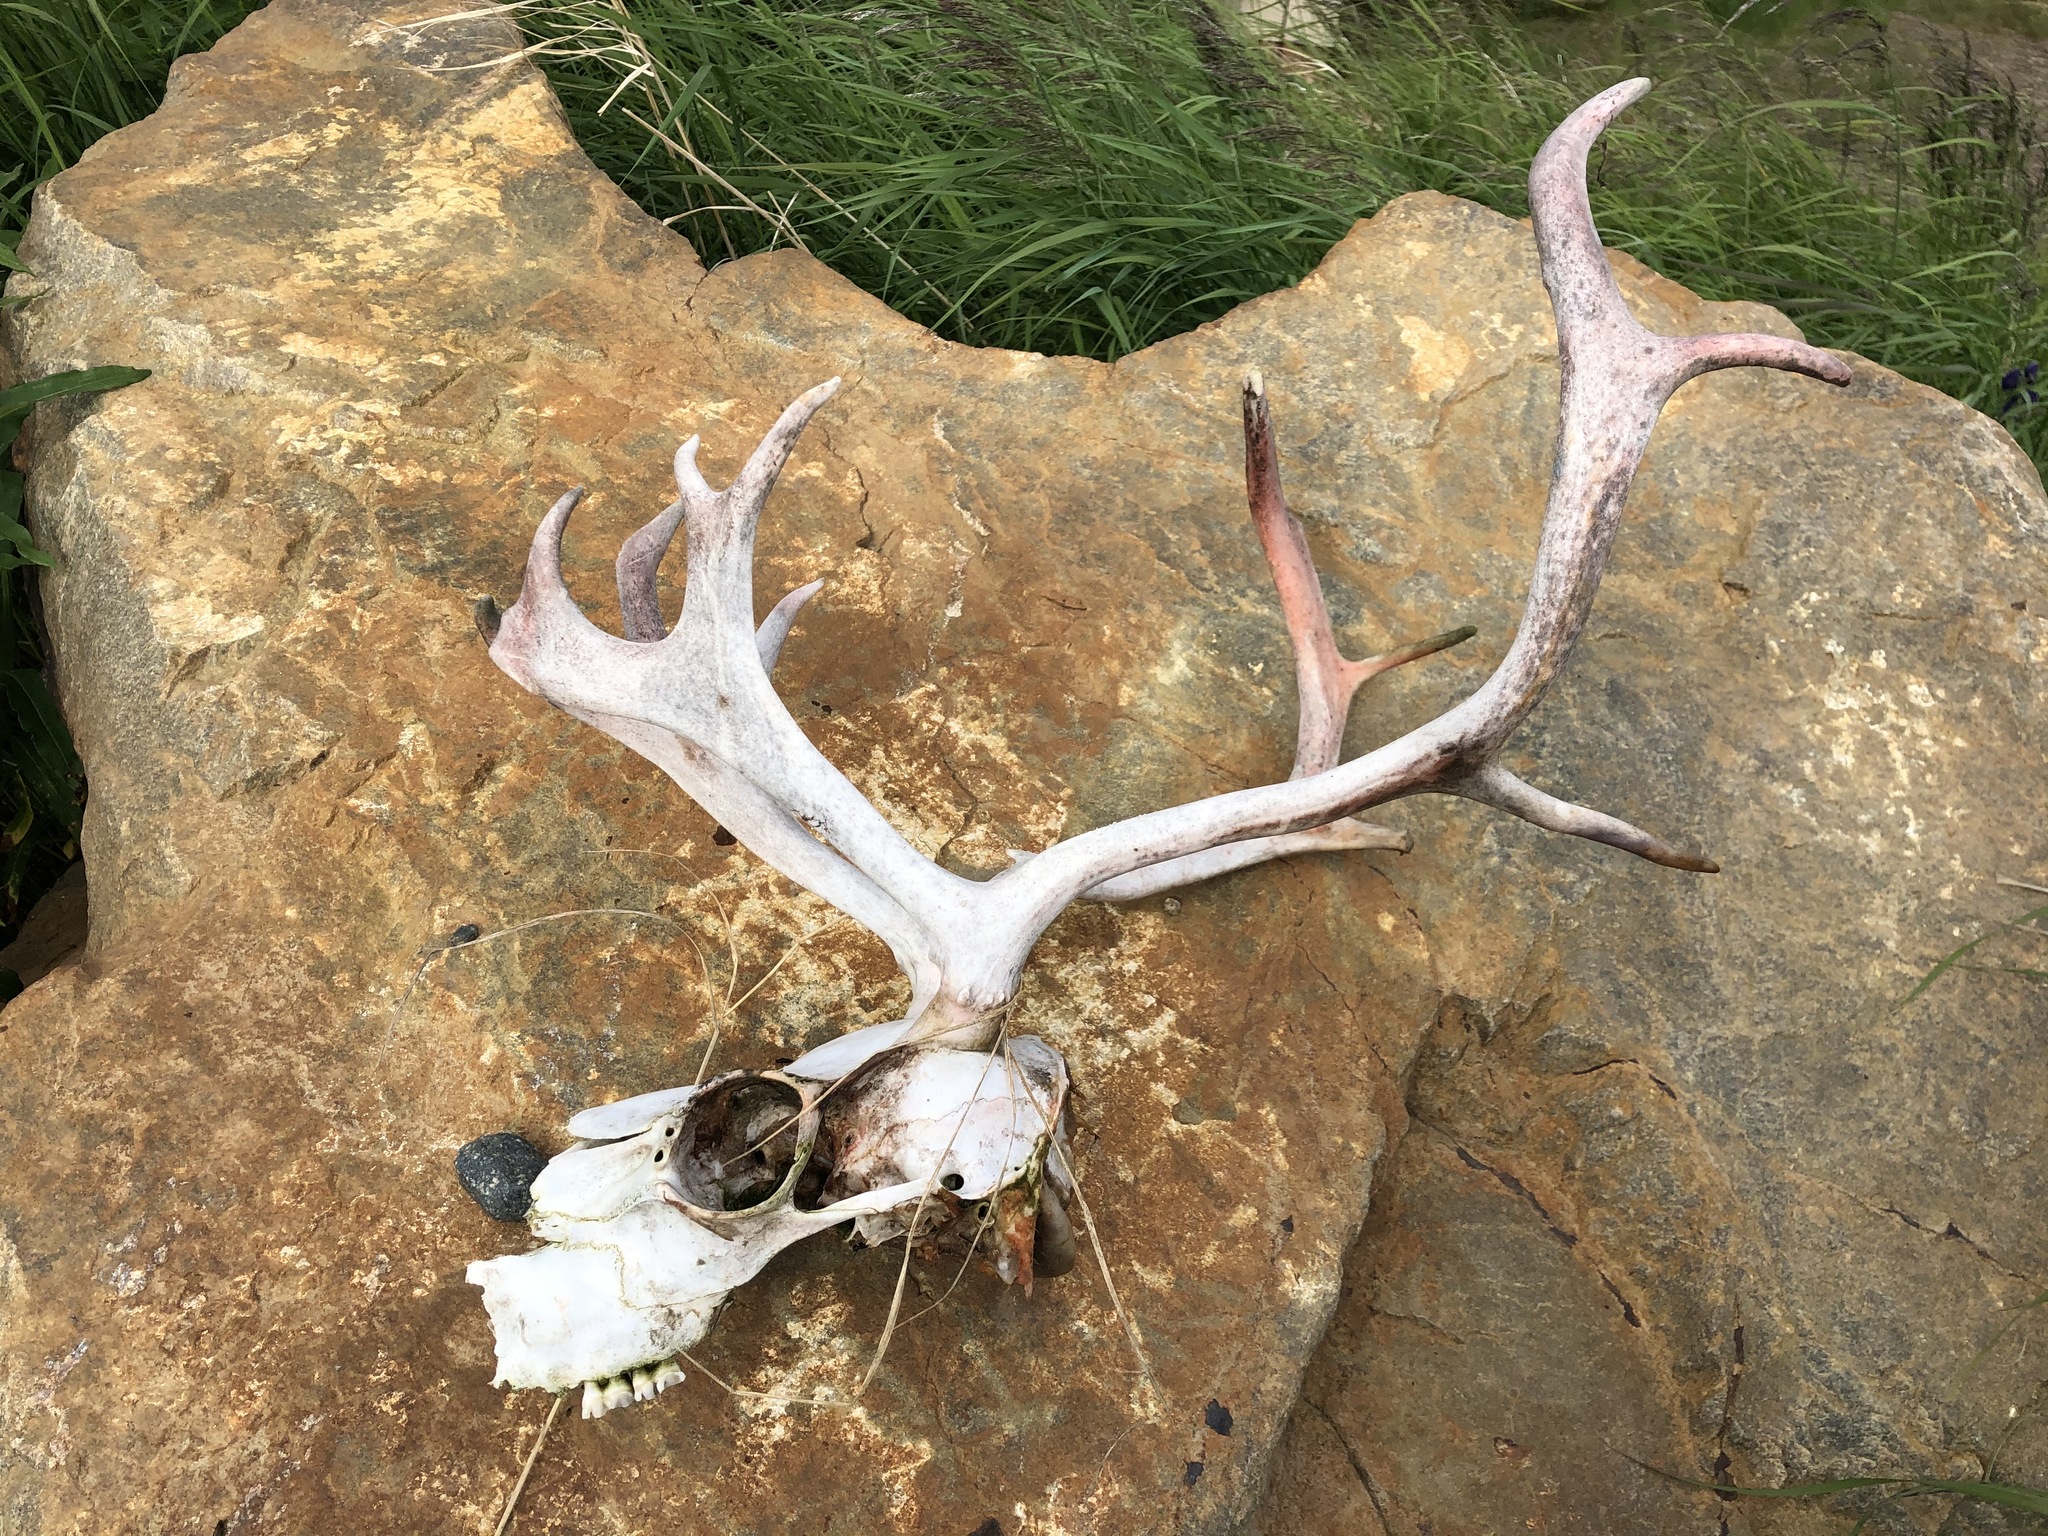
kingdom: Animalia
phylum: Chordata
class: Mammalia
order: Artiodactyla
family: Cervidae
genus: Rangifer
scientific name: Rangifer tarandus
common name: Reindeer
